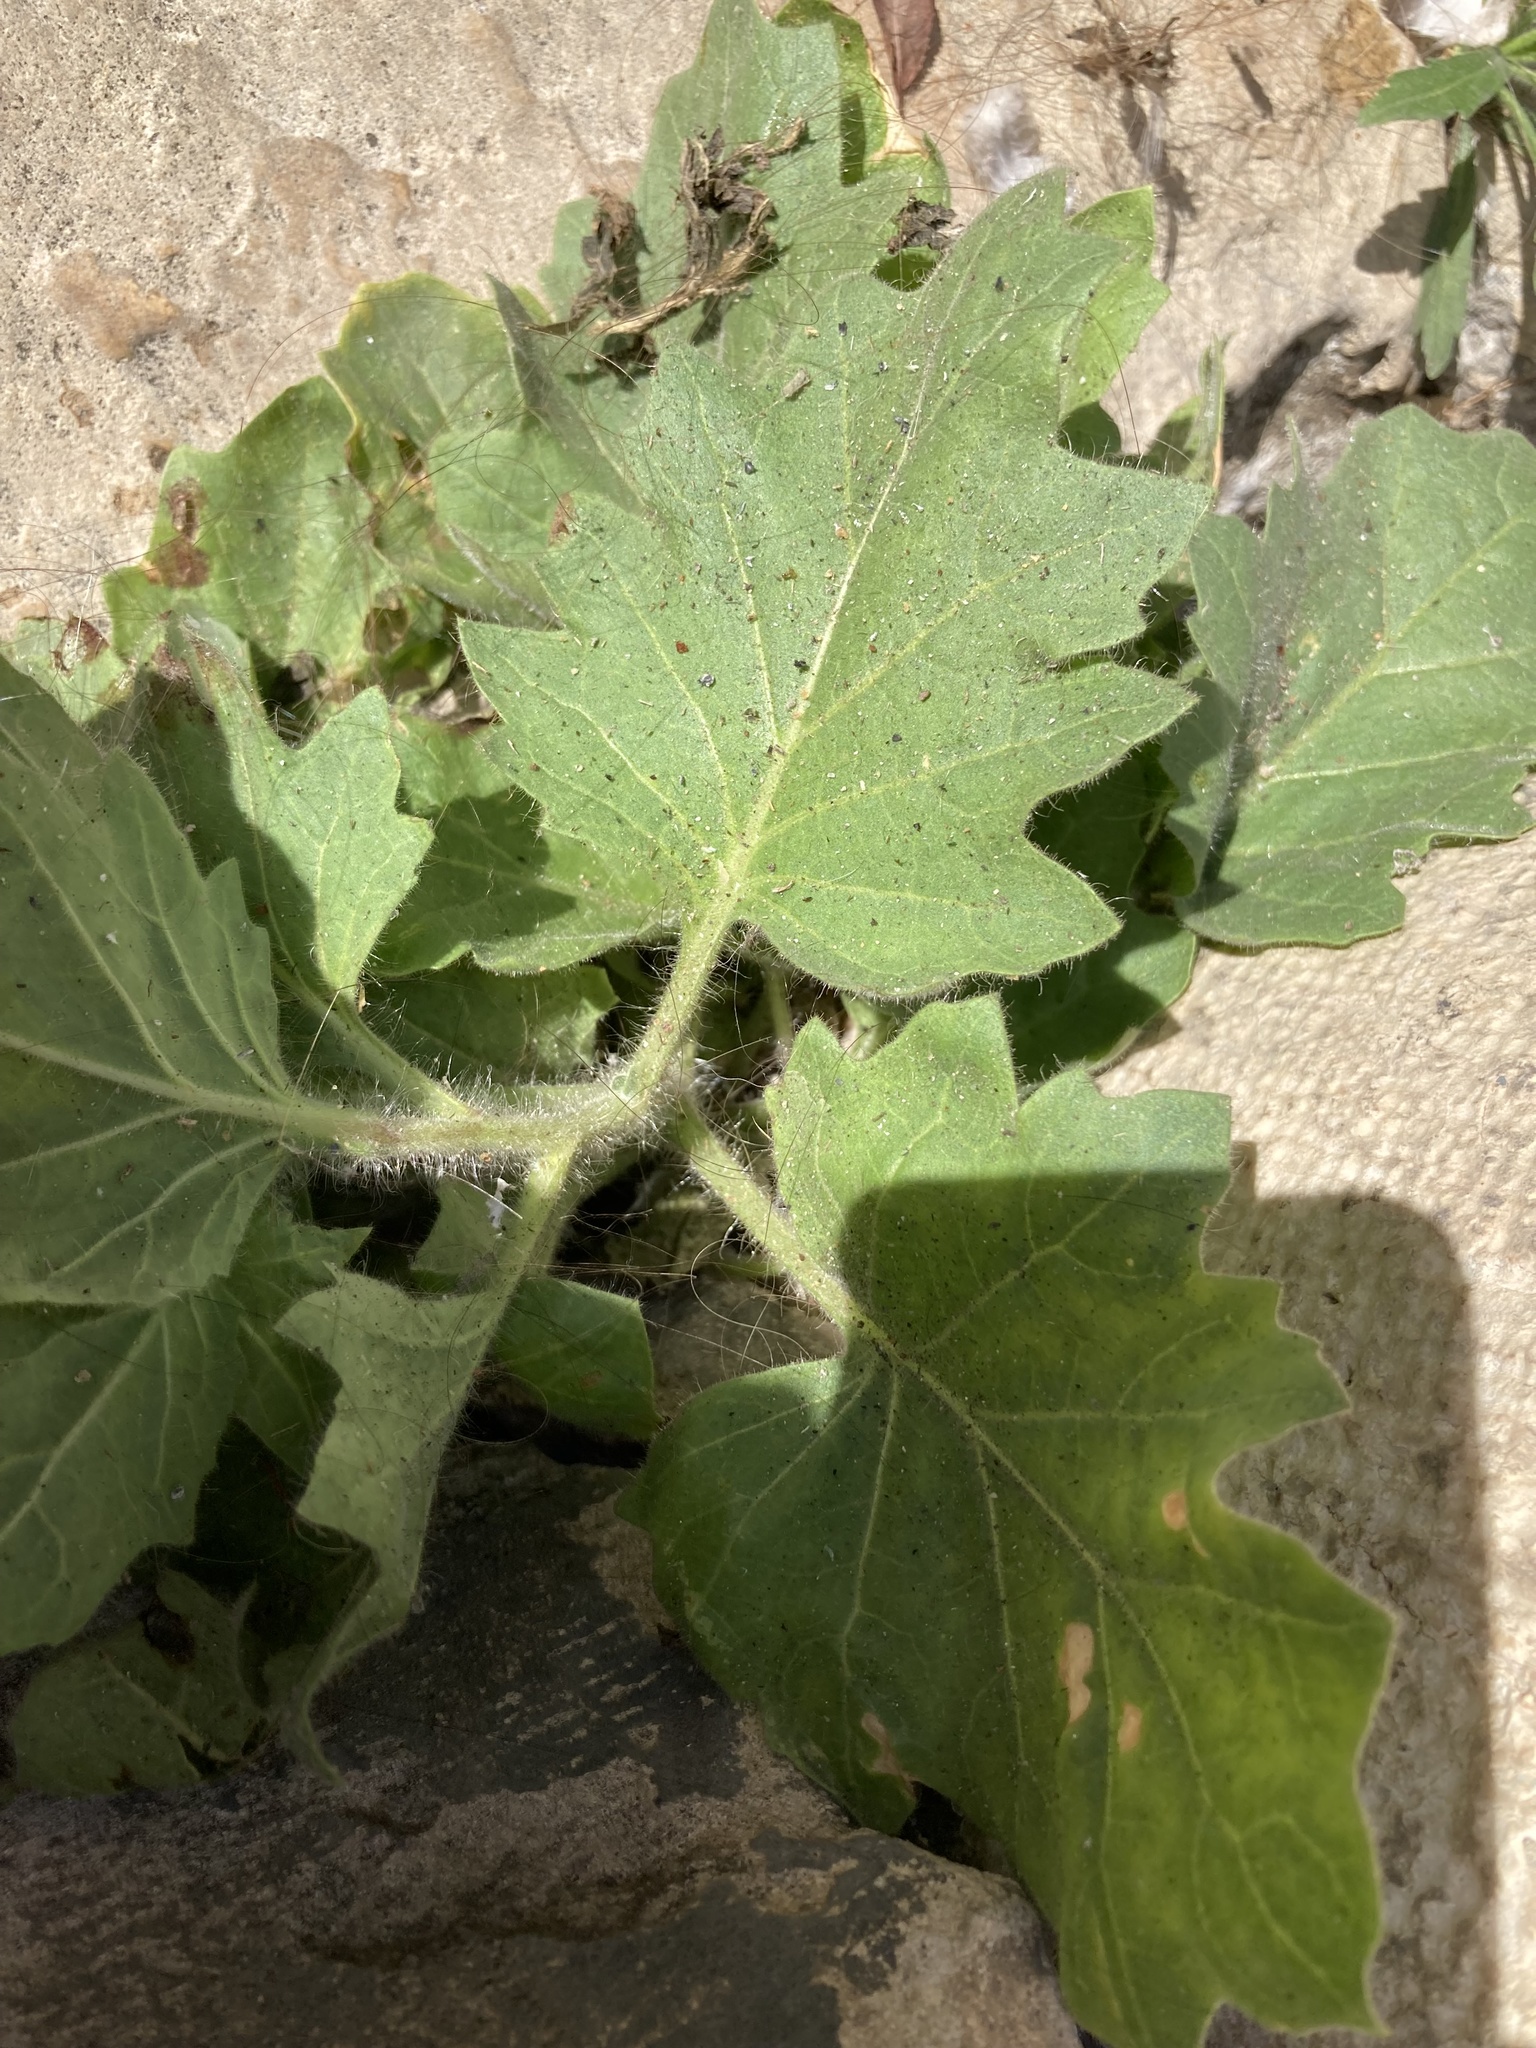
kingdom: Plantae
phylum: Tracheophyta
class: Magnoliopsida
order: Solanales
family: Solanaceae
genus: Hyoscyamus
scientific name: Hyoscyamus albus
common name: White henbane
